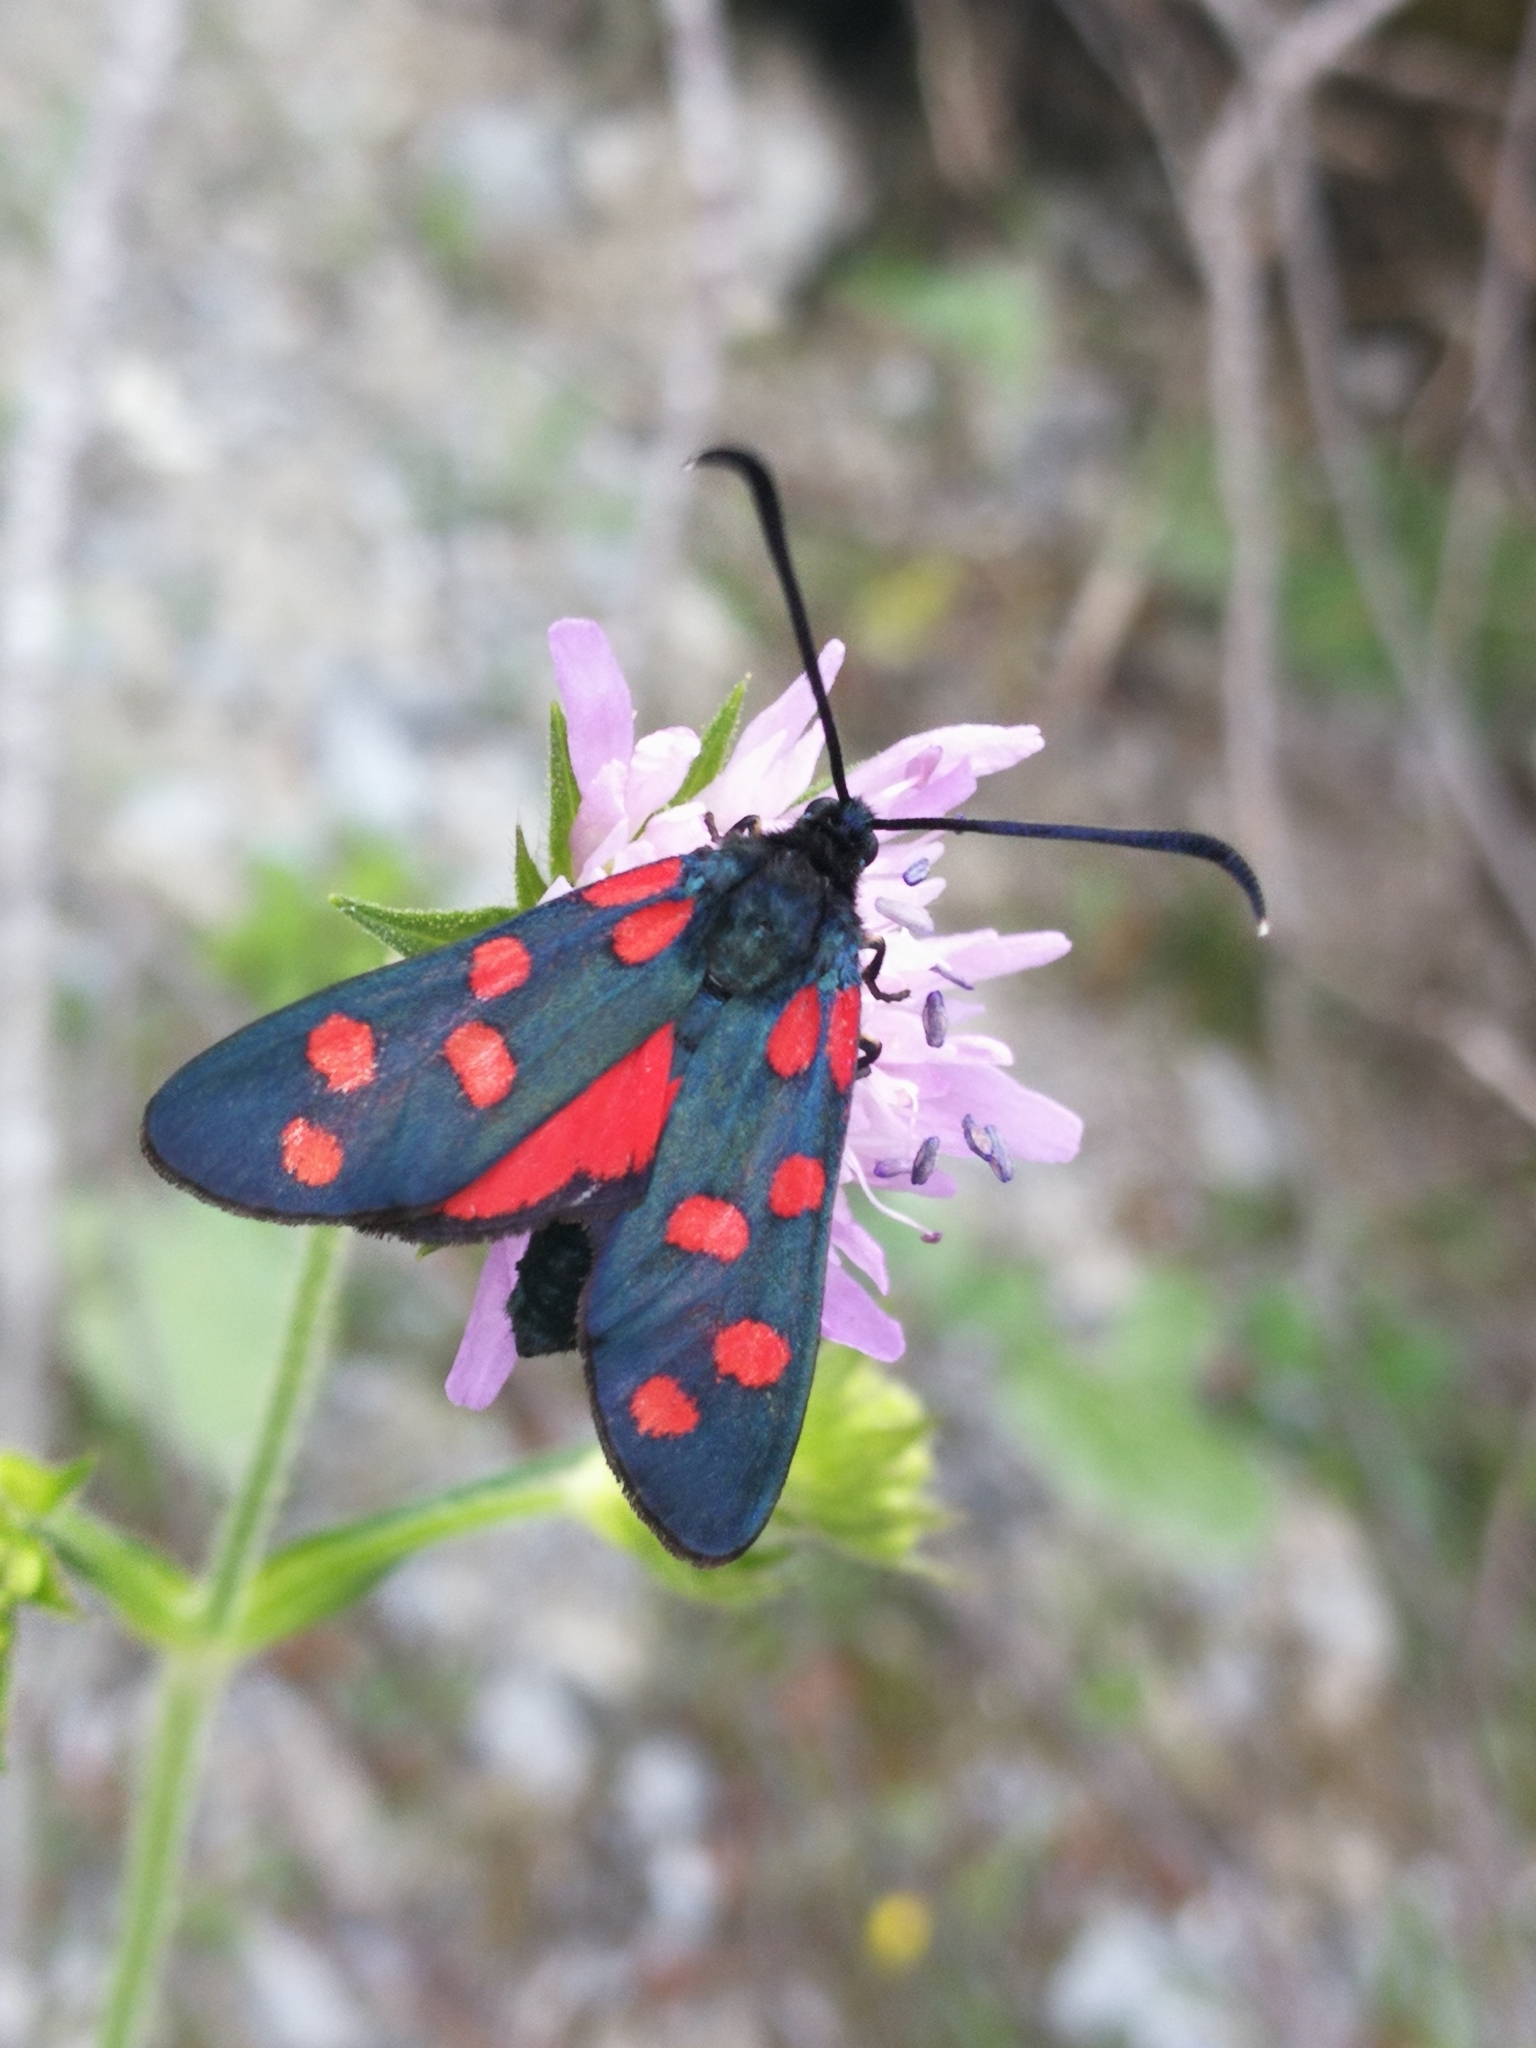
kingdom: Animalia
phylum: Arthropoda
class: Insecta
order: Lepidoptera
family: Zygaenidae
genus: Zygaena
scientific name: Zygaena transalpina
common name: Southern six spot burnet
